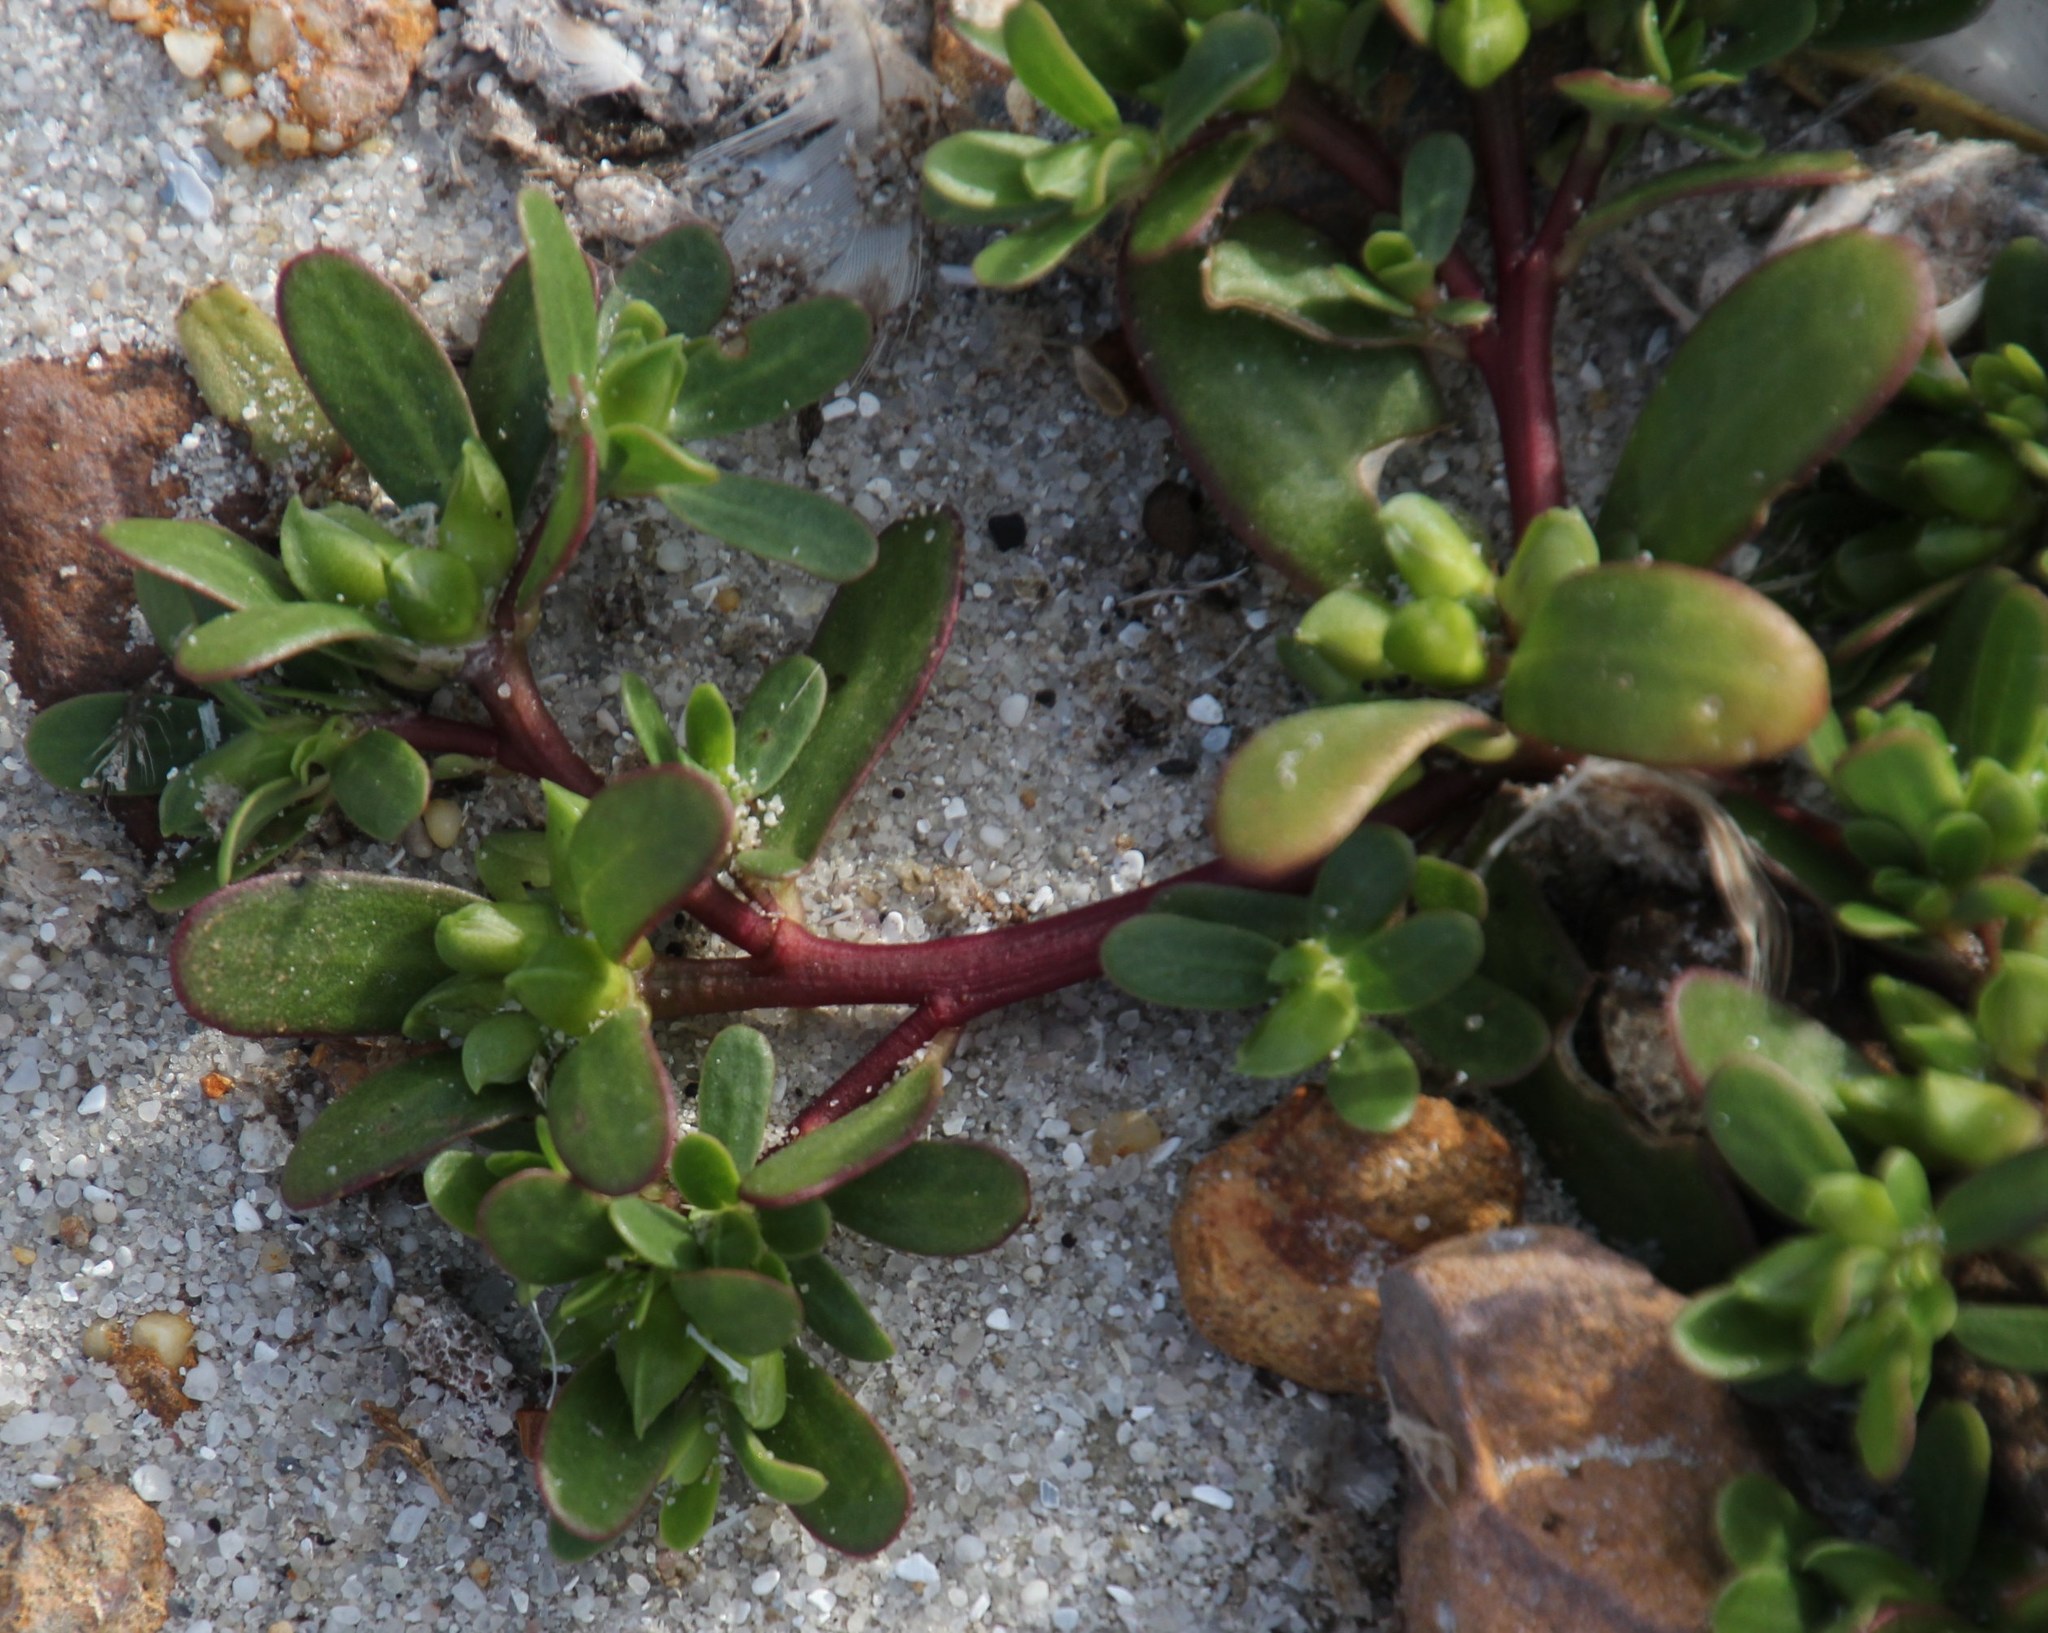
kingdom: Plantae
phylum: Tracheophyta
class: Magnoliopsida
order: Caryophyllales
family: Portulacaceae
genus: Portulaca
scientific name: Portulaca oleracea
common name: Common purslane
